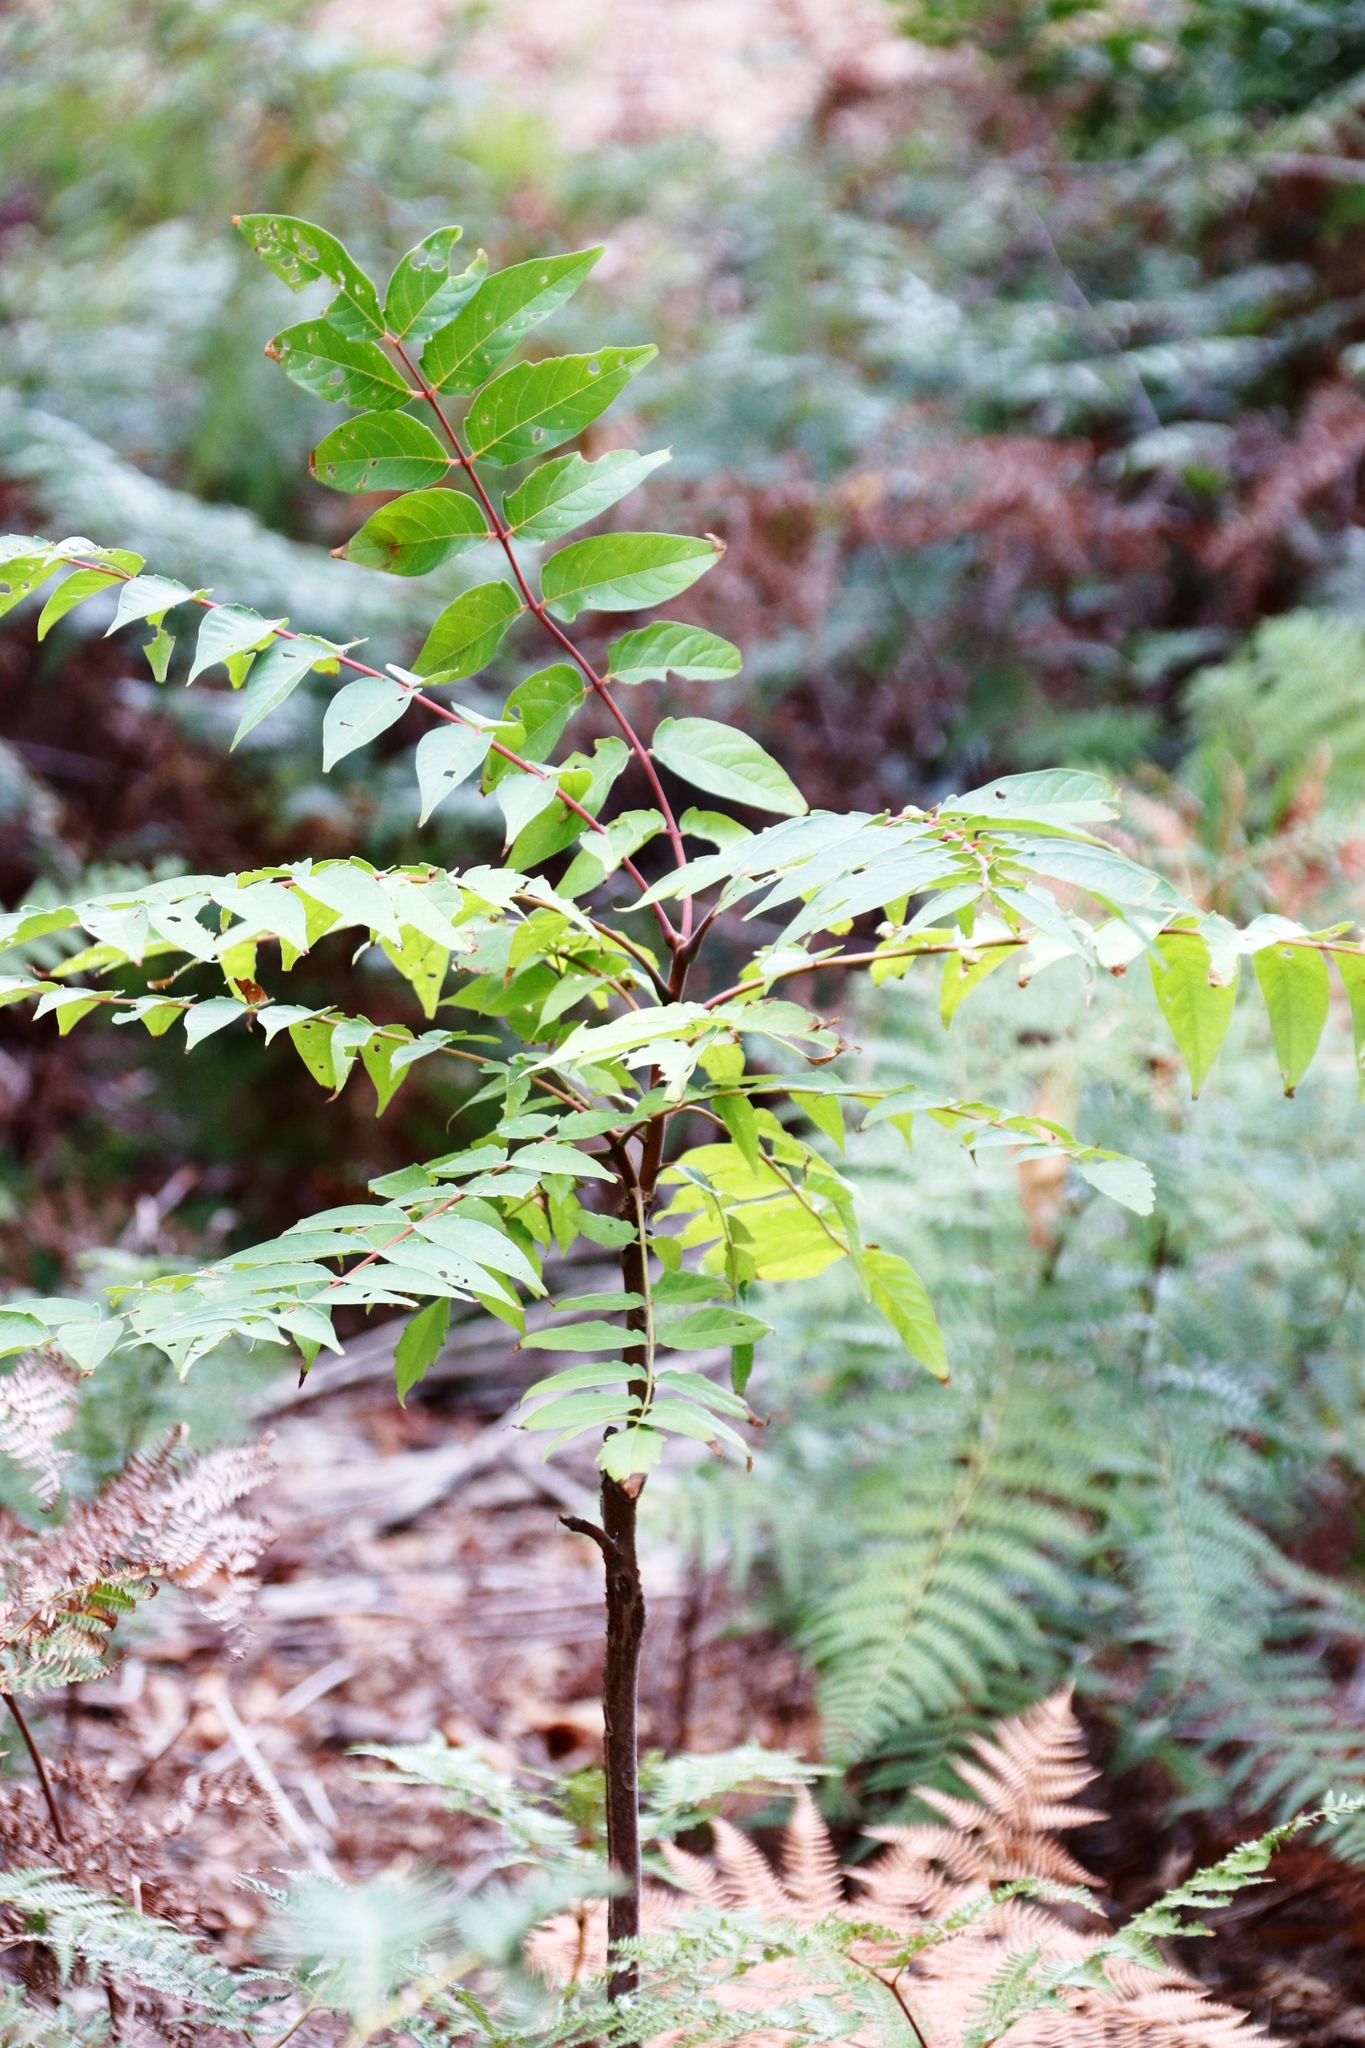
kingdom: Plantae
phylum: Tracheophyta
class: Magnoliopsida
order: Sapindales
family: Simaroubaceae
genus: Ailanthus
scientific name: Ailanthus altissima
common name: Tree-of-heaven
